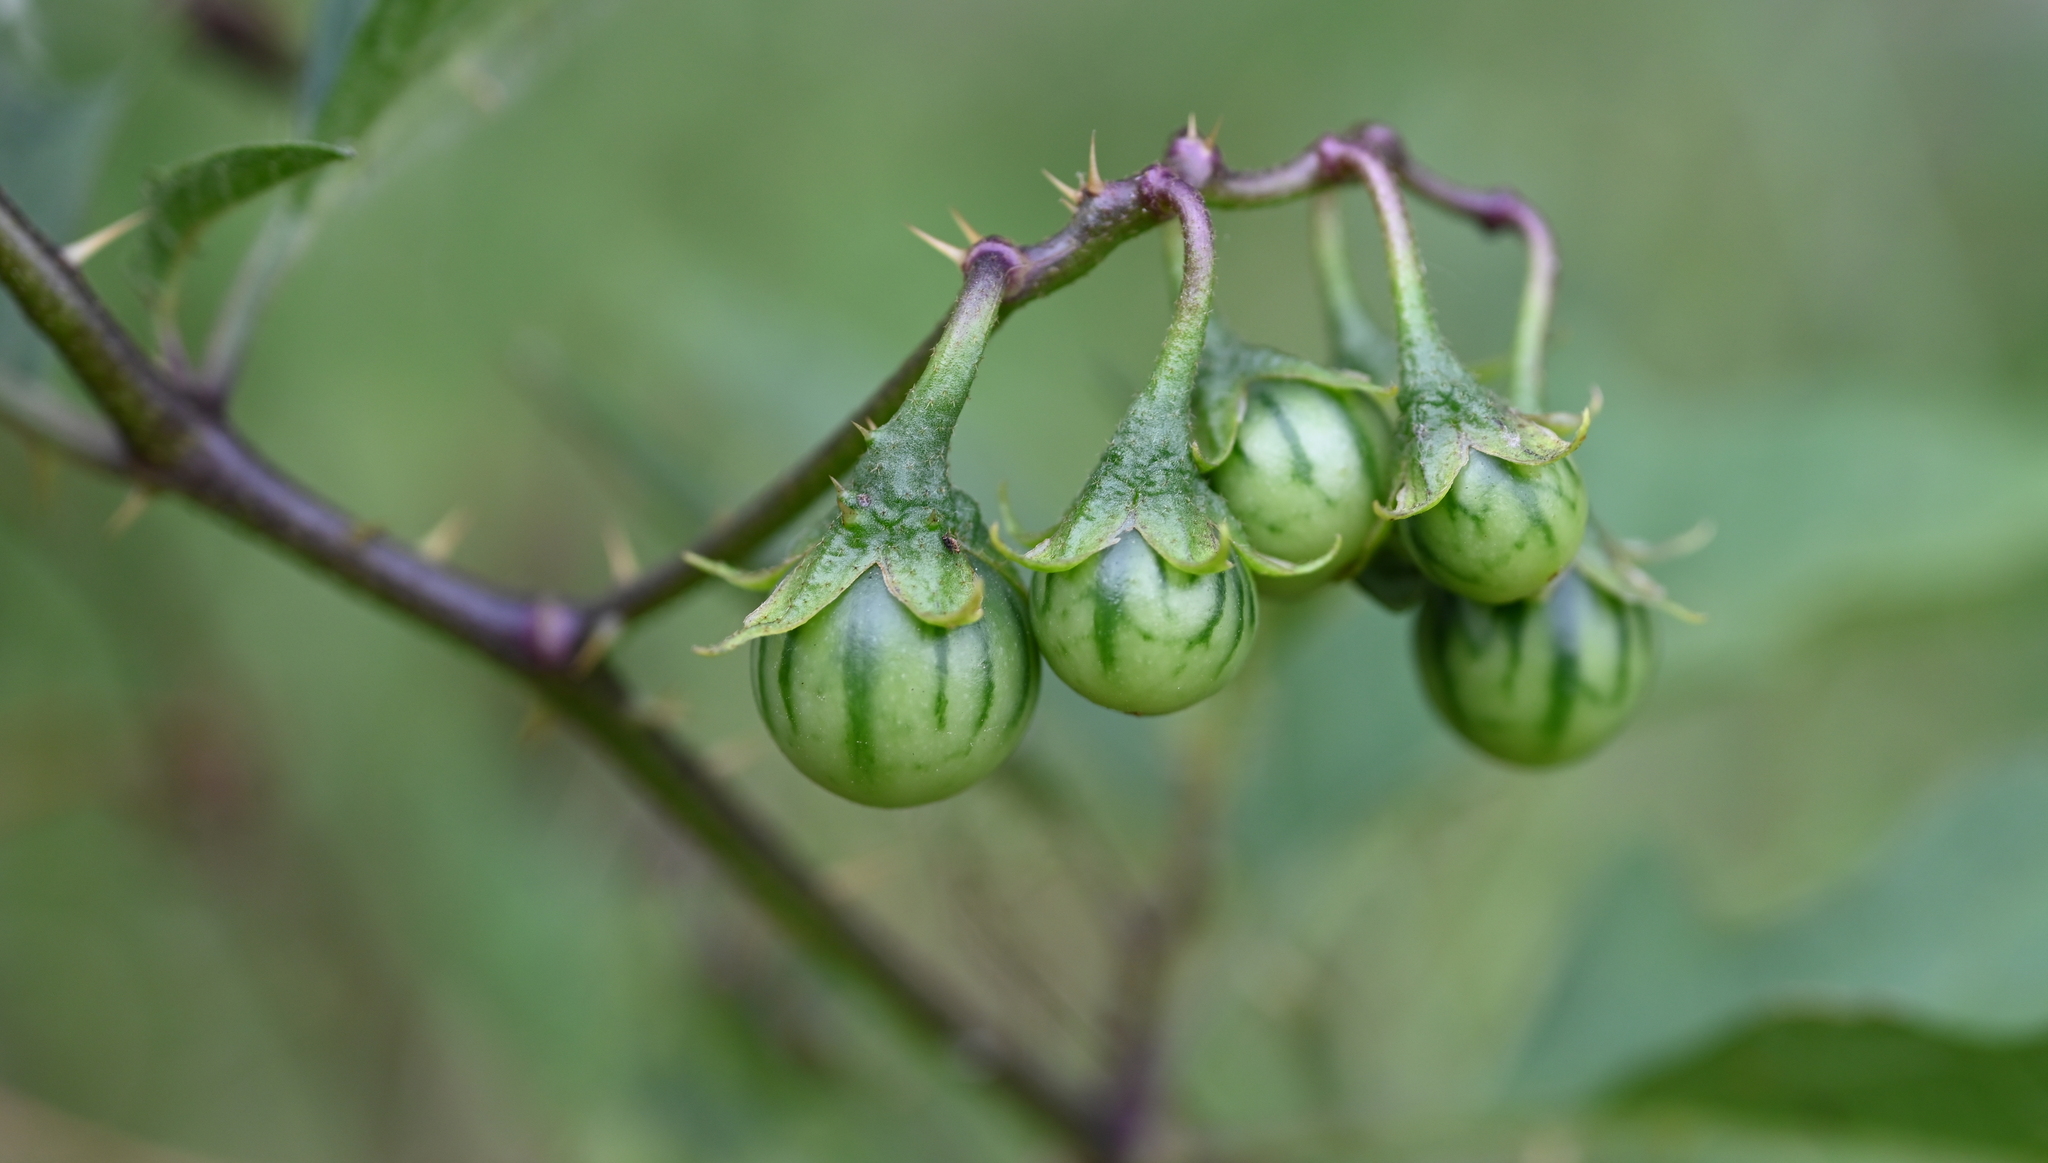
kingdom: Plantae
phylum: Tracheophyta
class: Magnoliopsida
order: Solanales
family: Solanaceae
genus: Solanum
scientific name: Solanum carolinense
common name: Horse-nettle
